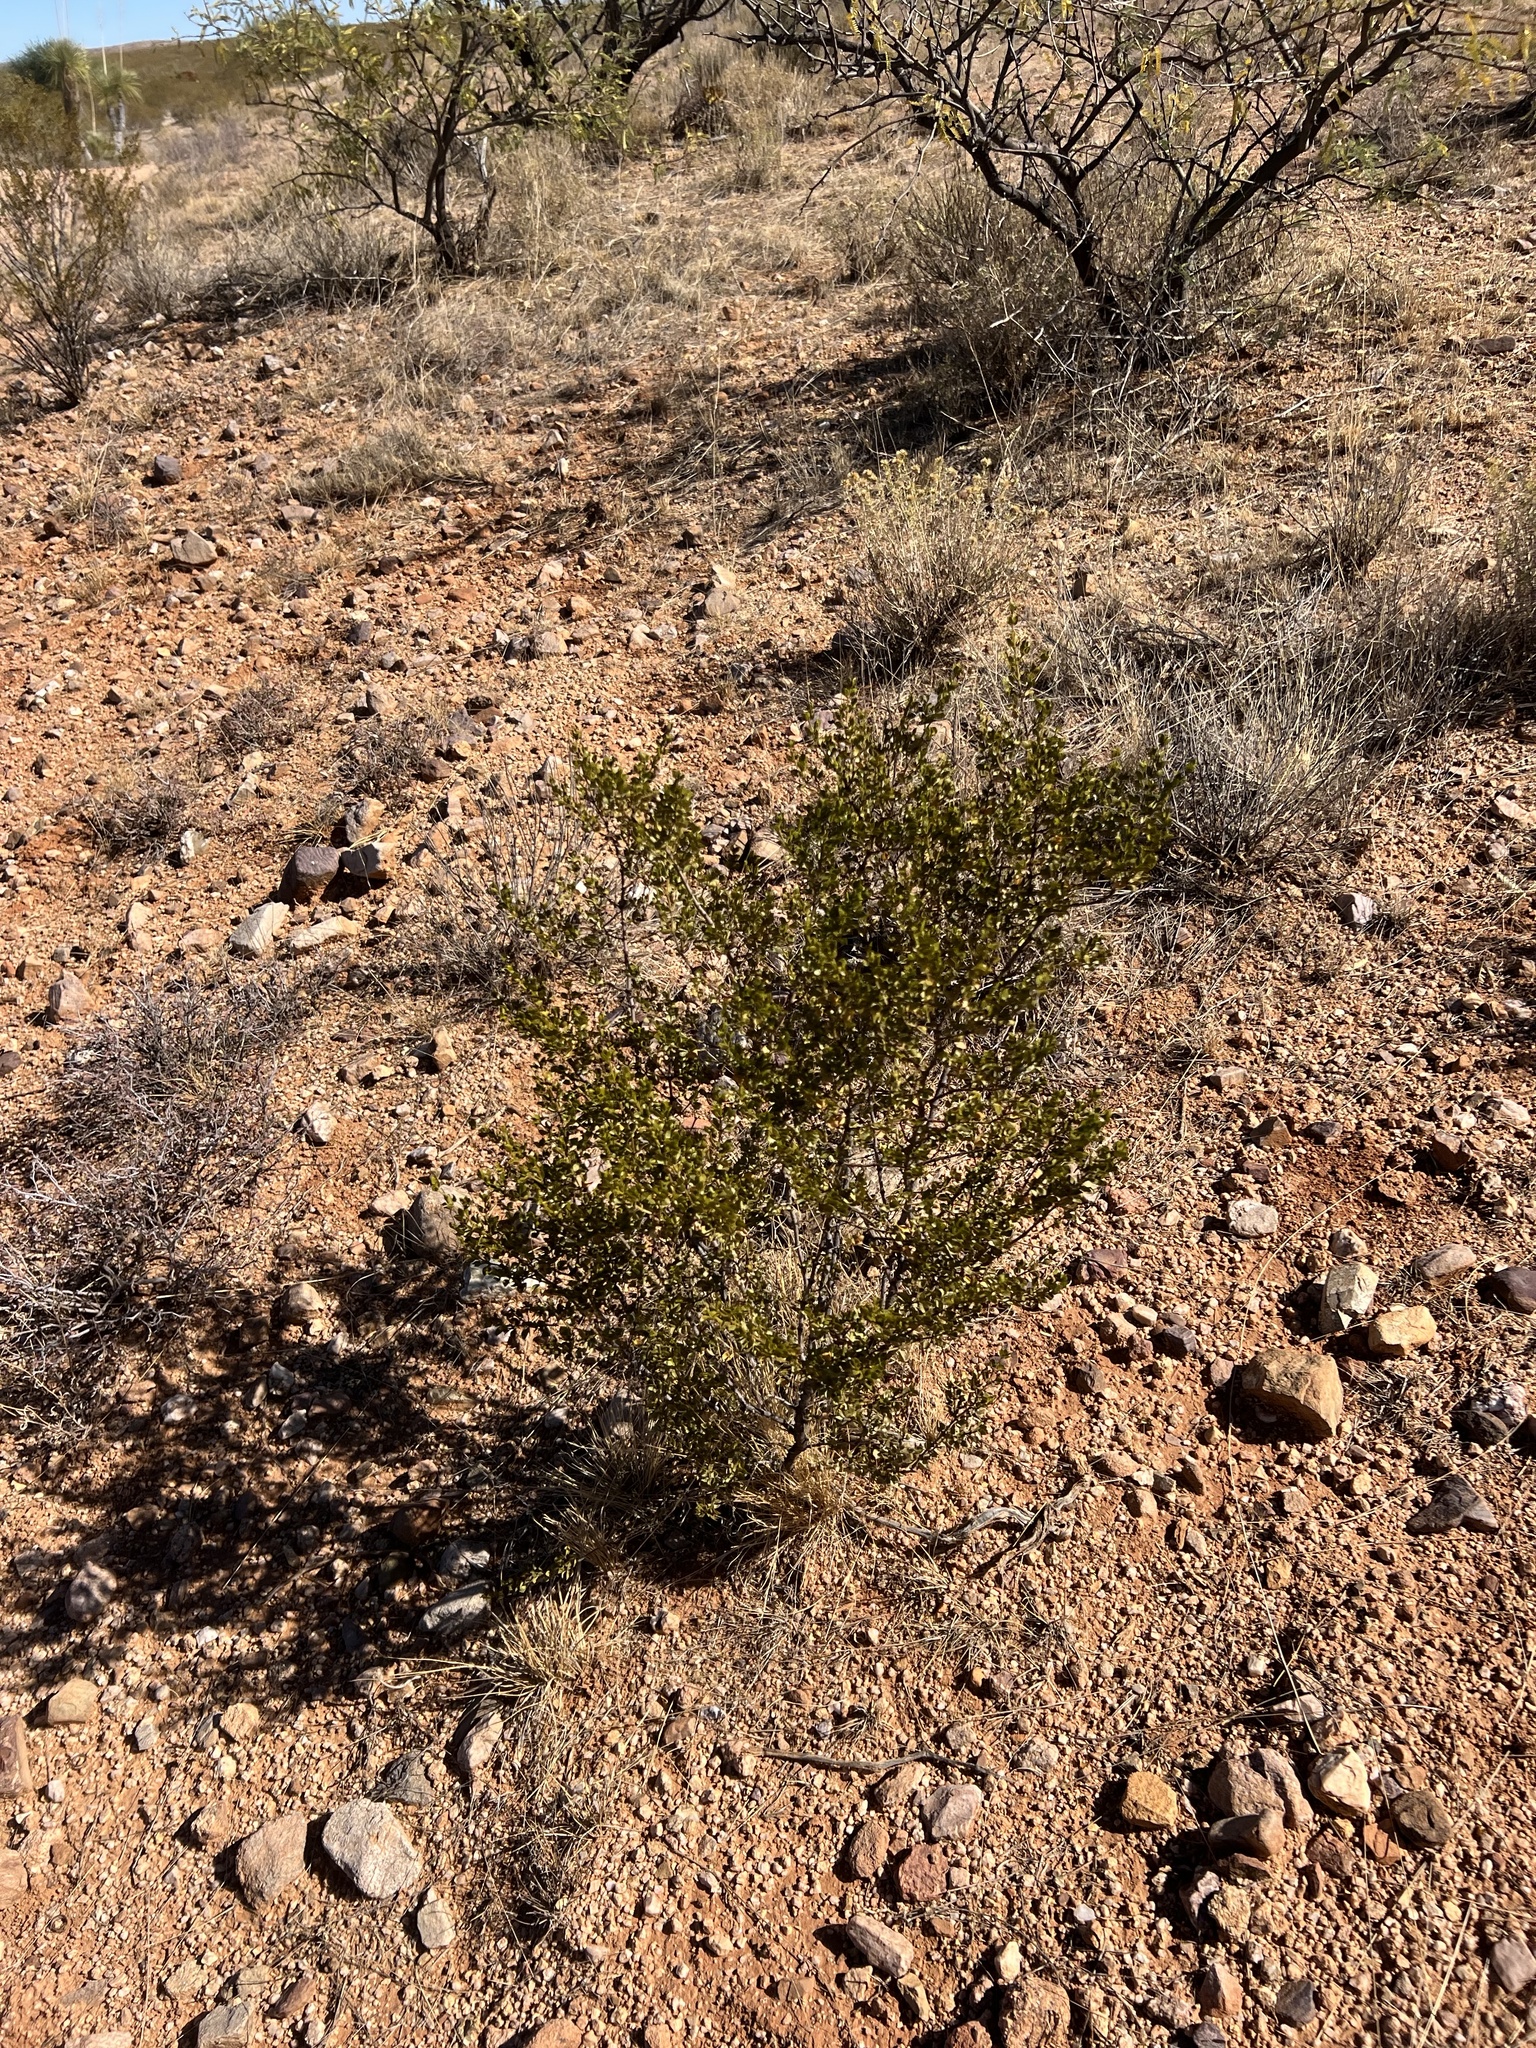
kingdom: Plantae
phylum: Tracheophyta
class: Magnoliopsida
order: Zygophyllales
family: Zygophyllaceae
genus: Larrea
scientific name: Larrea tridentata
